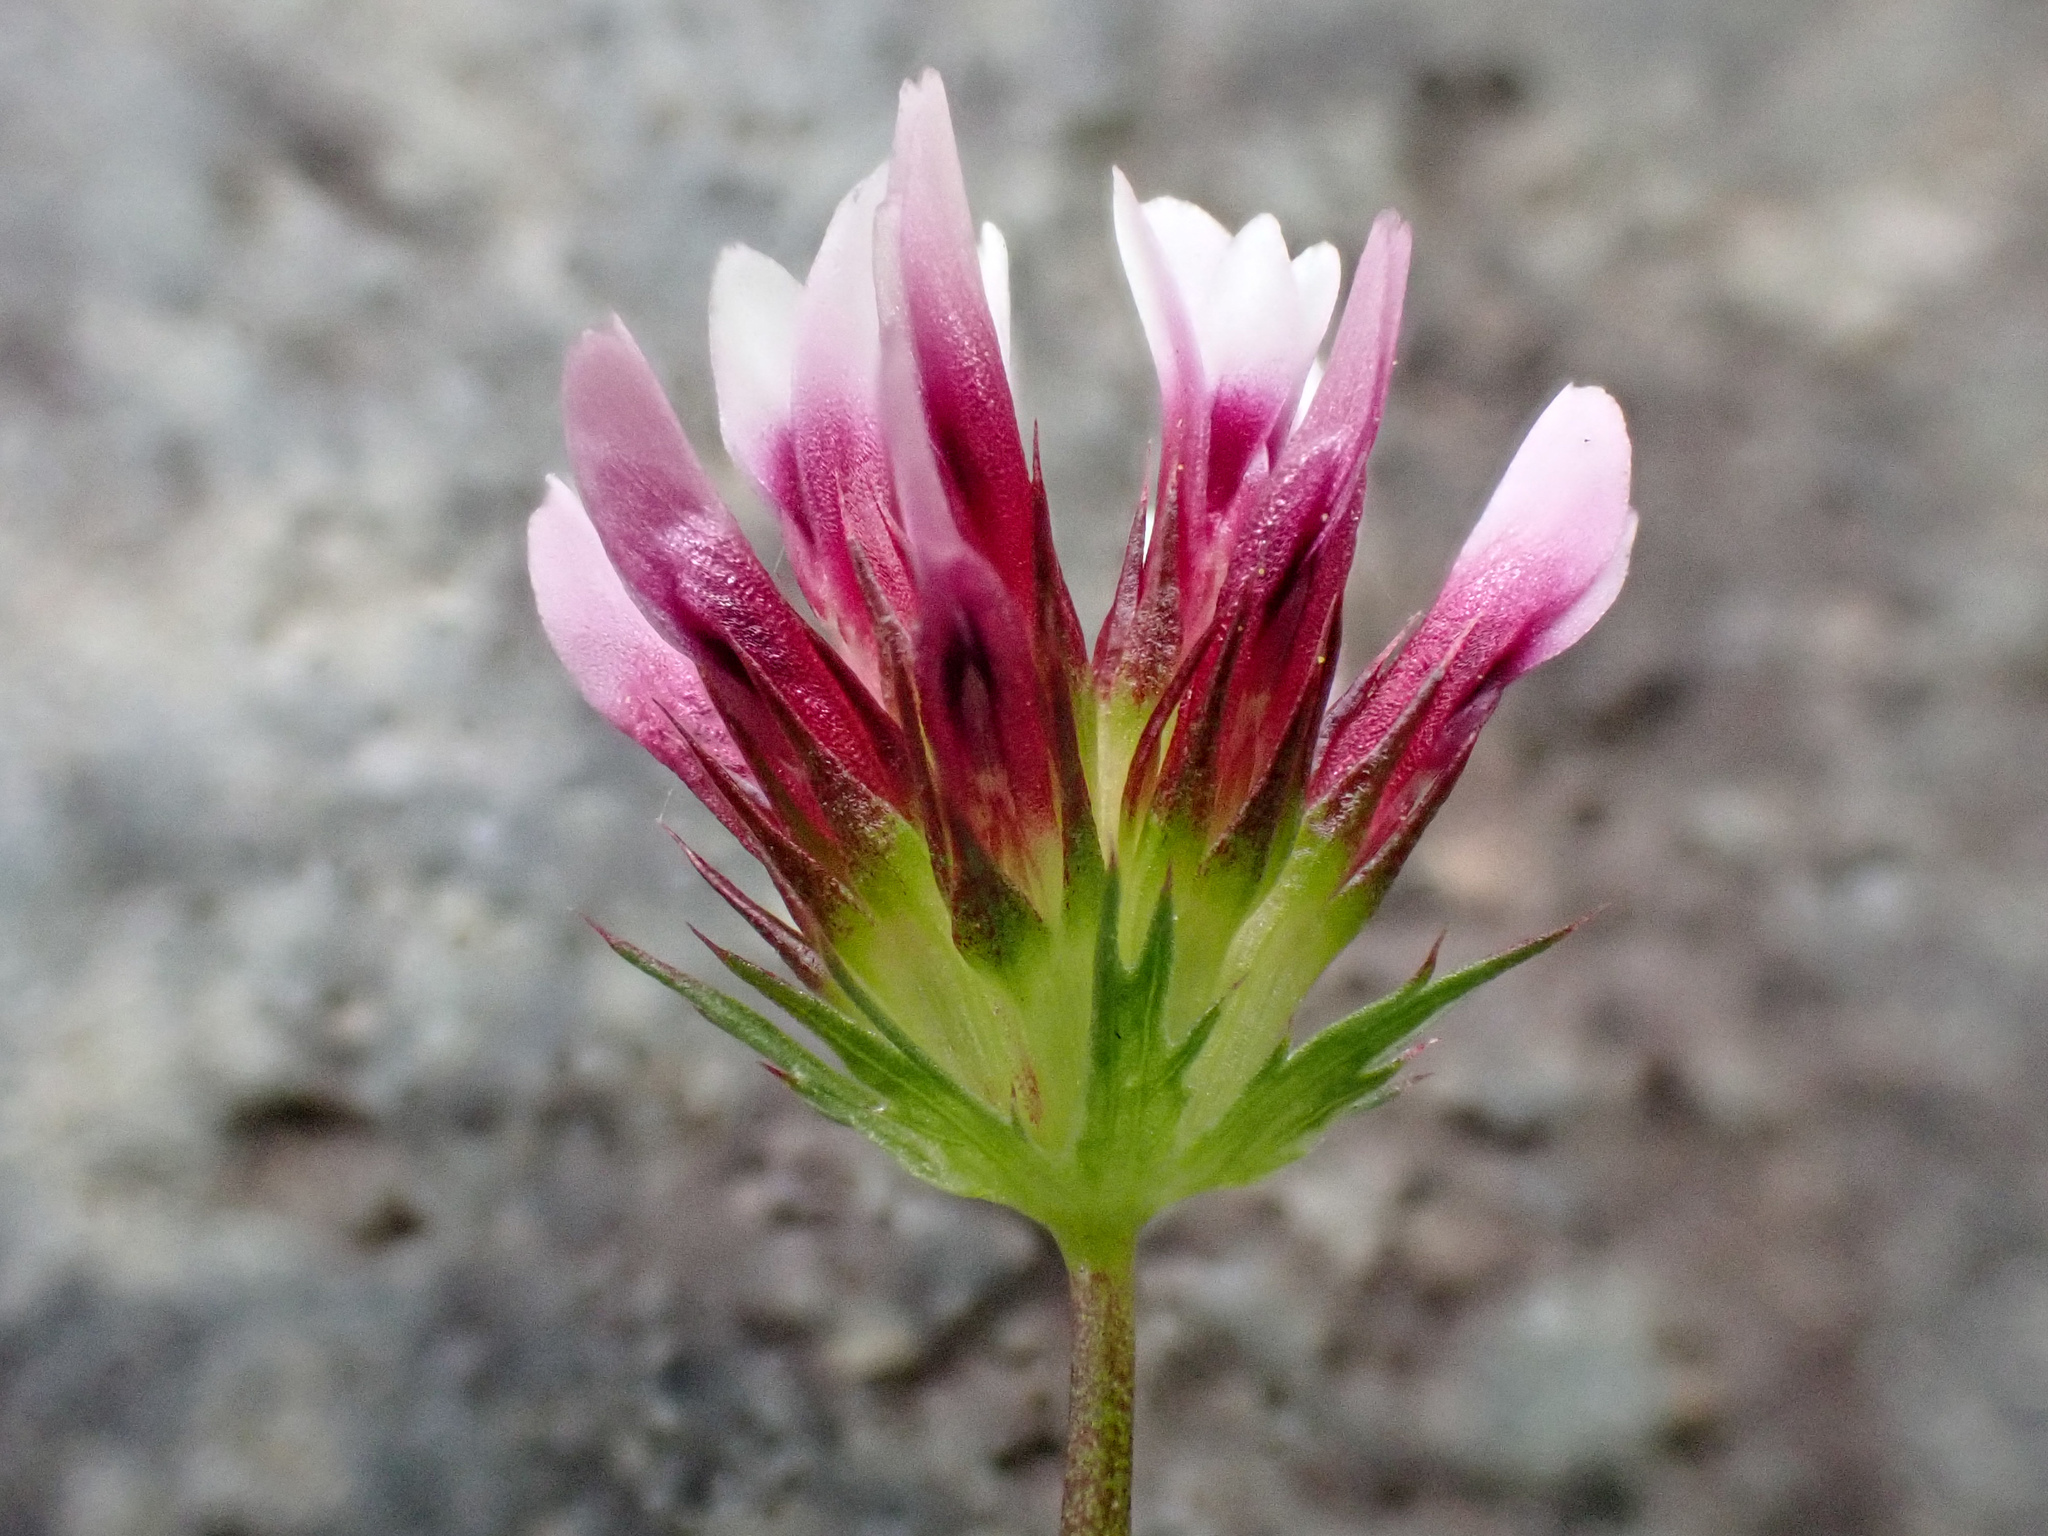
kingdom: Plantae
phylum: Tracheophyta
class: Magnoliopsida
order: Fabales
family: Fabaceae
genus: Trifolium
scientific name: Trifolium variegatum
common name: Whitetip clover
